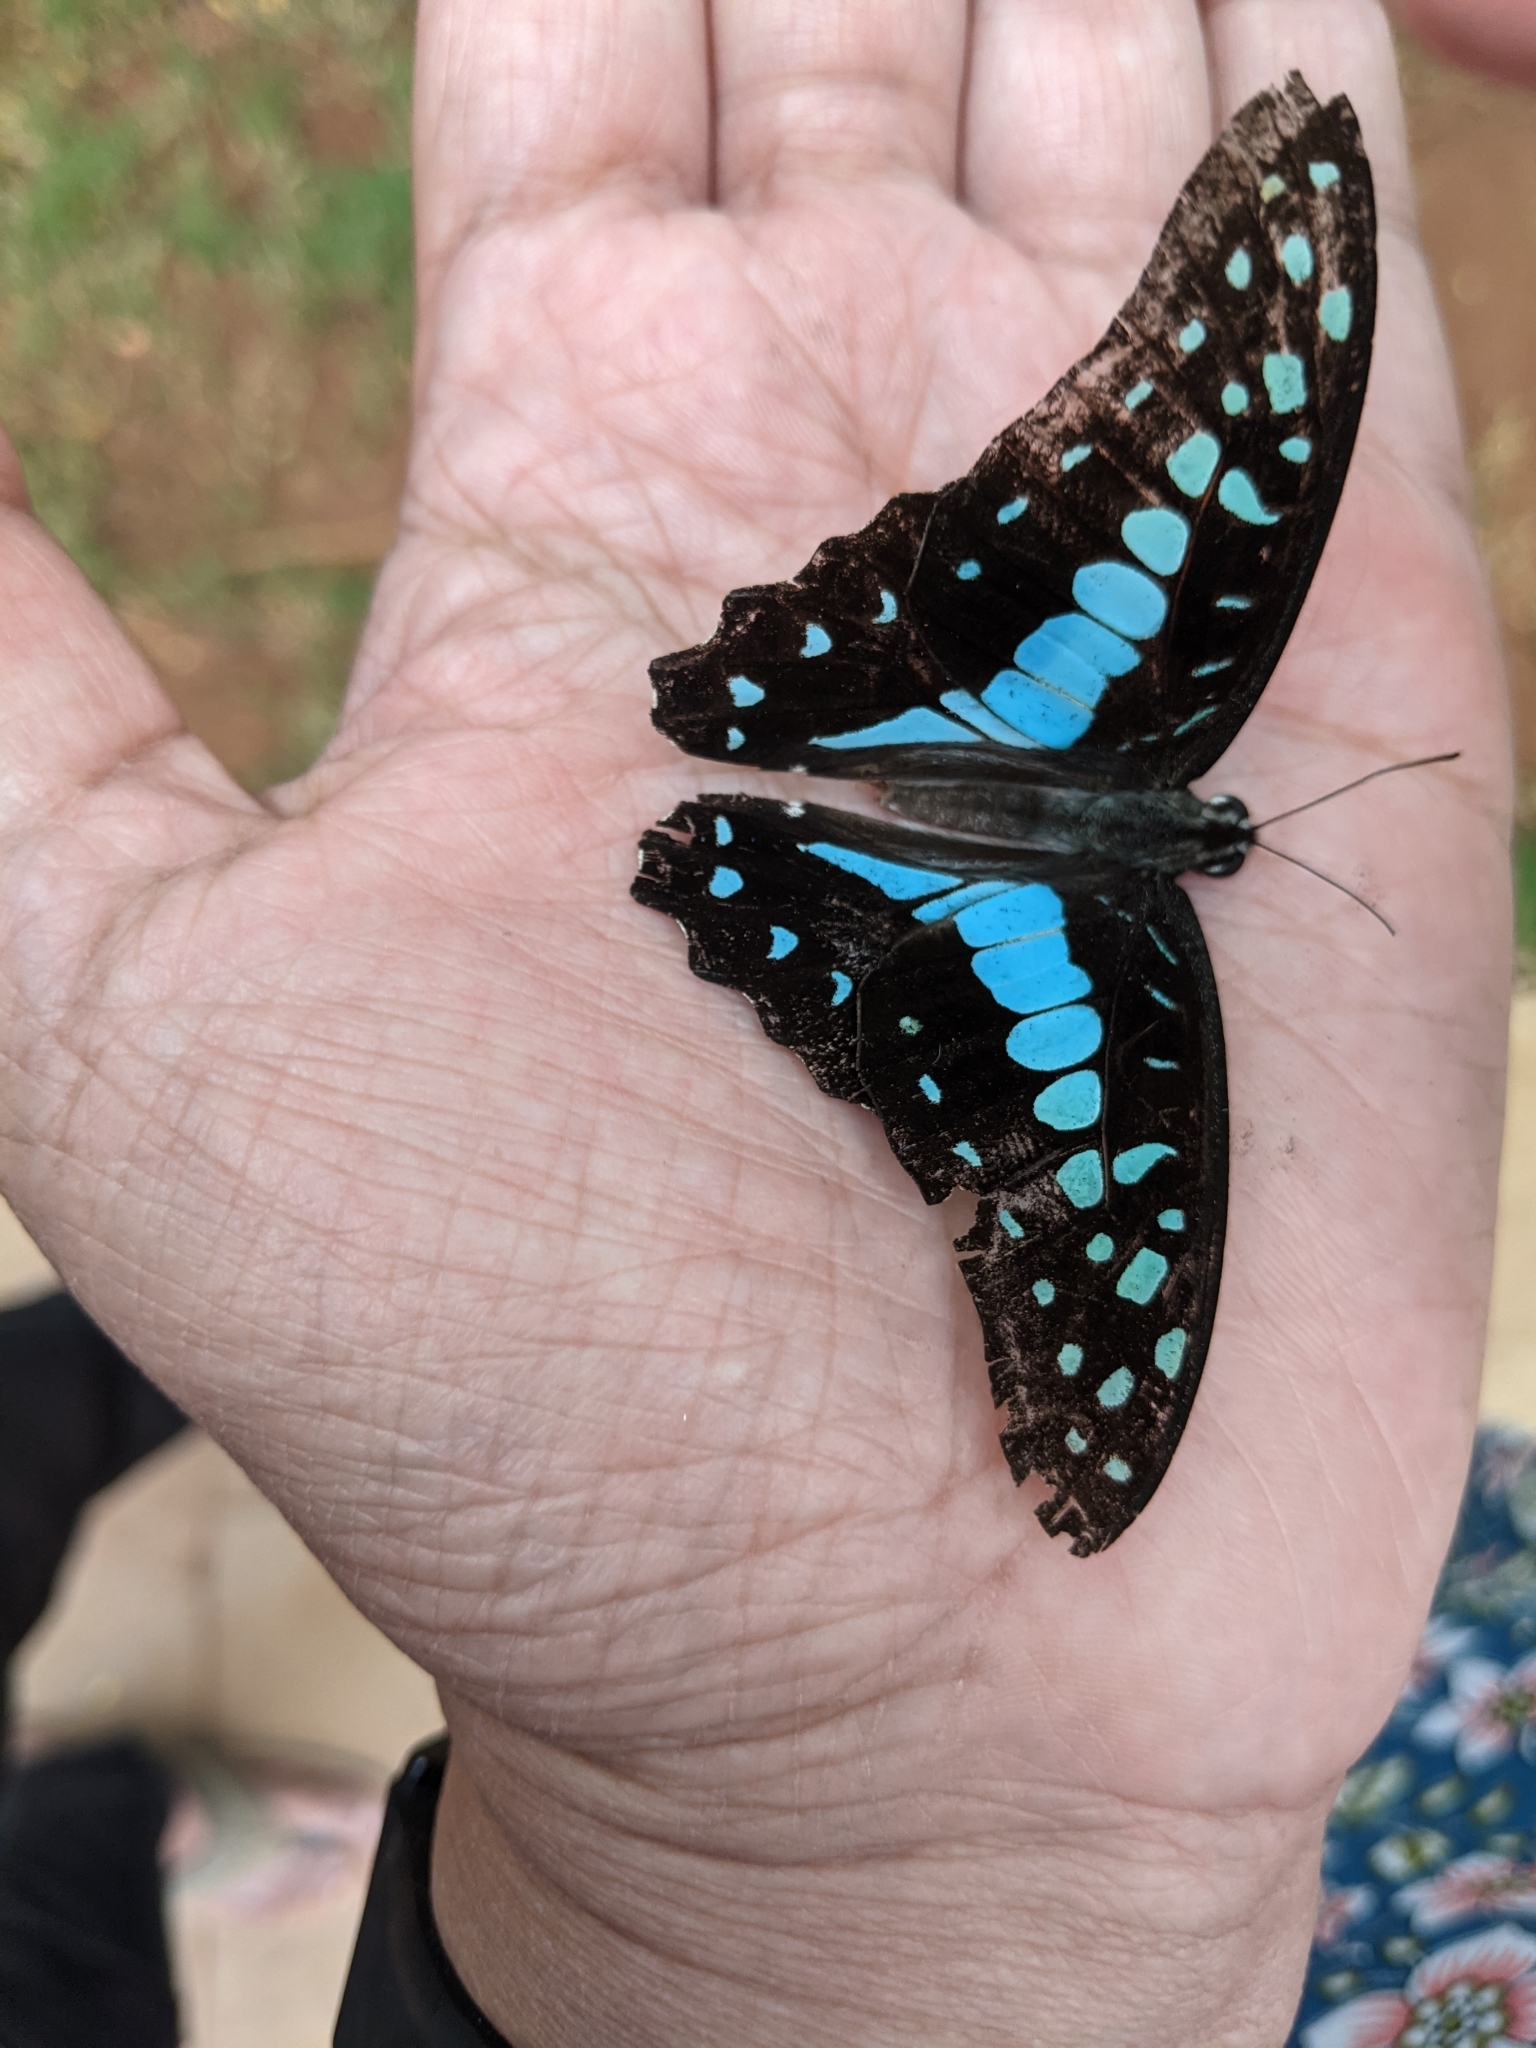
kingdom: Animalia
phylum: Arthropoda
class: Insecta
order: Lepidoptera
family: Papilionidae
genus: Graphium
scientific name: Graphium doson
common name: Common jay
